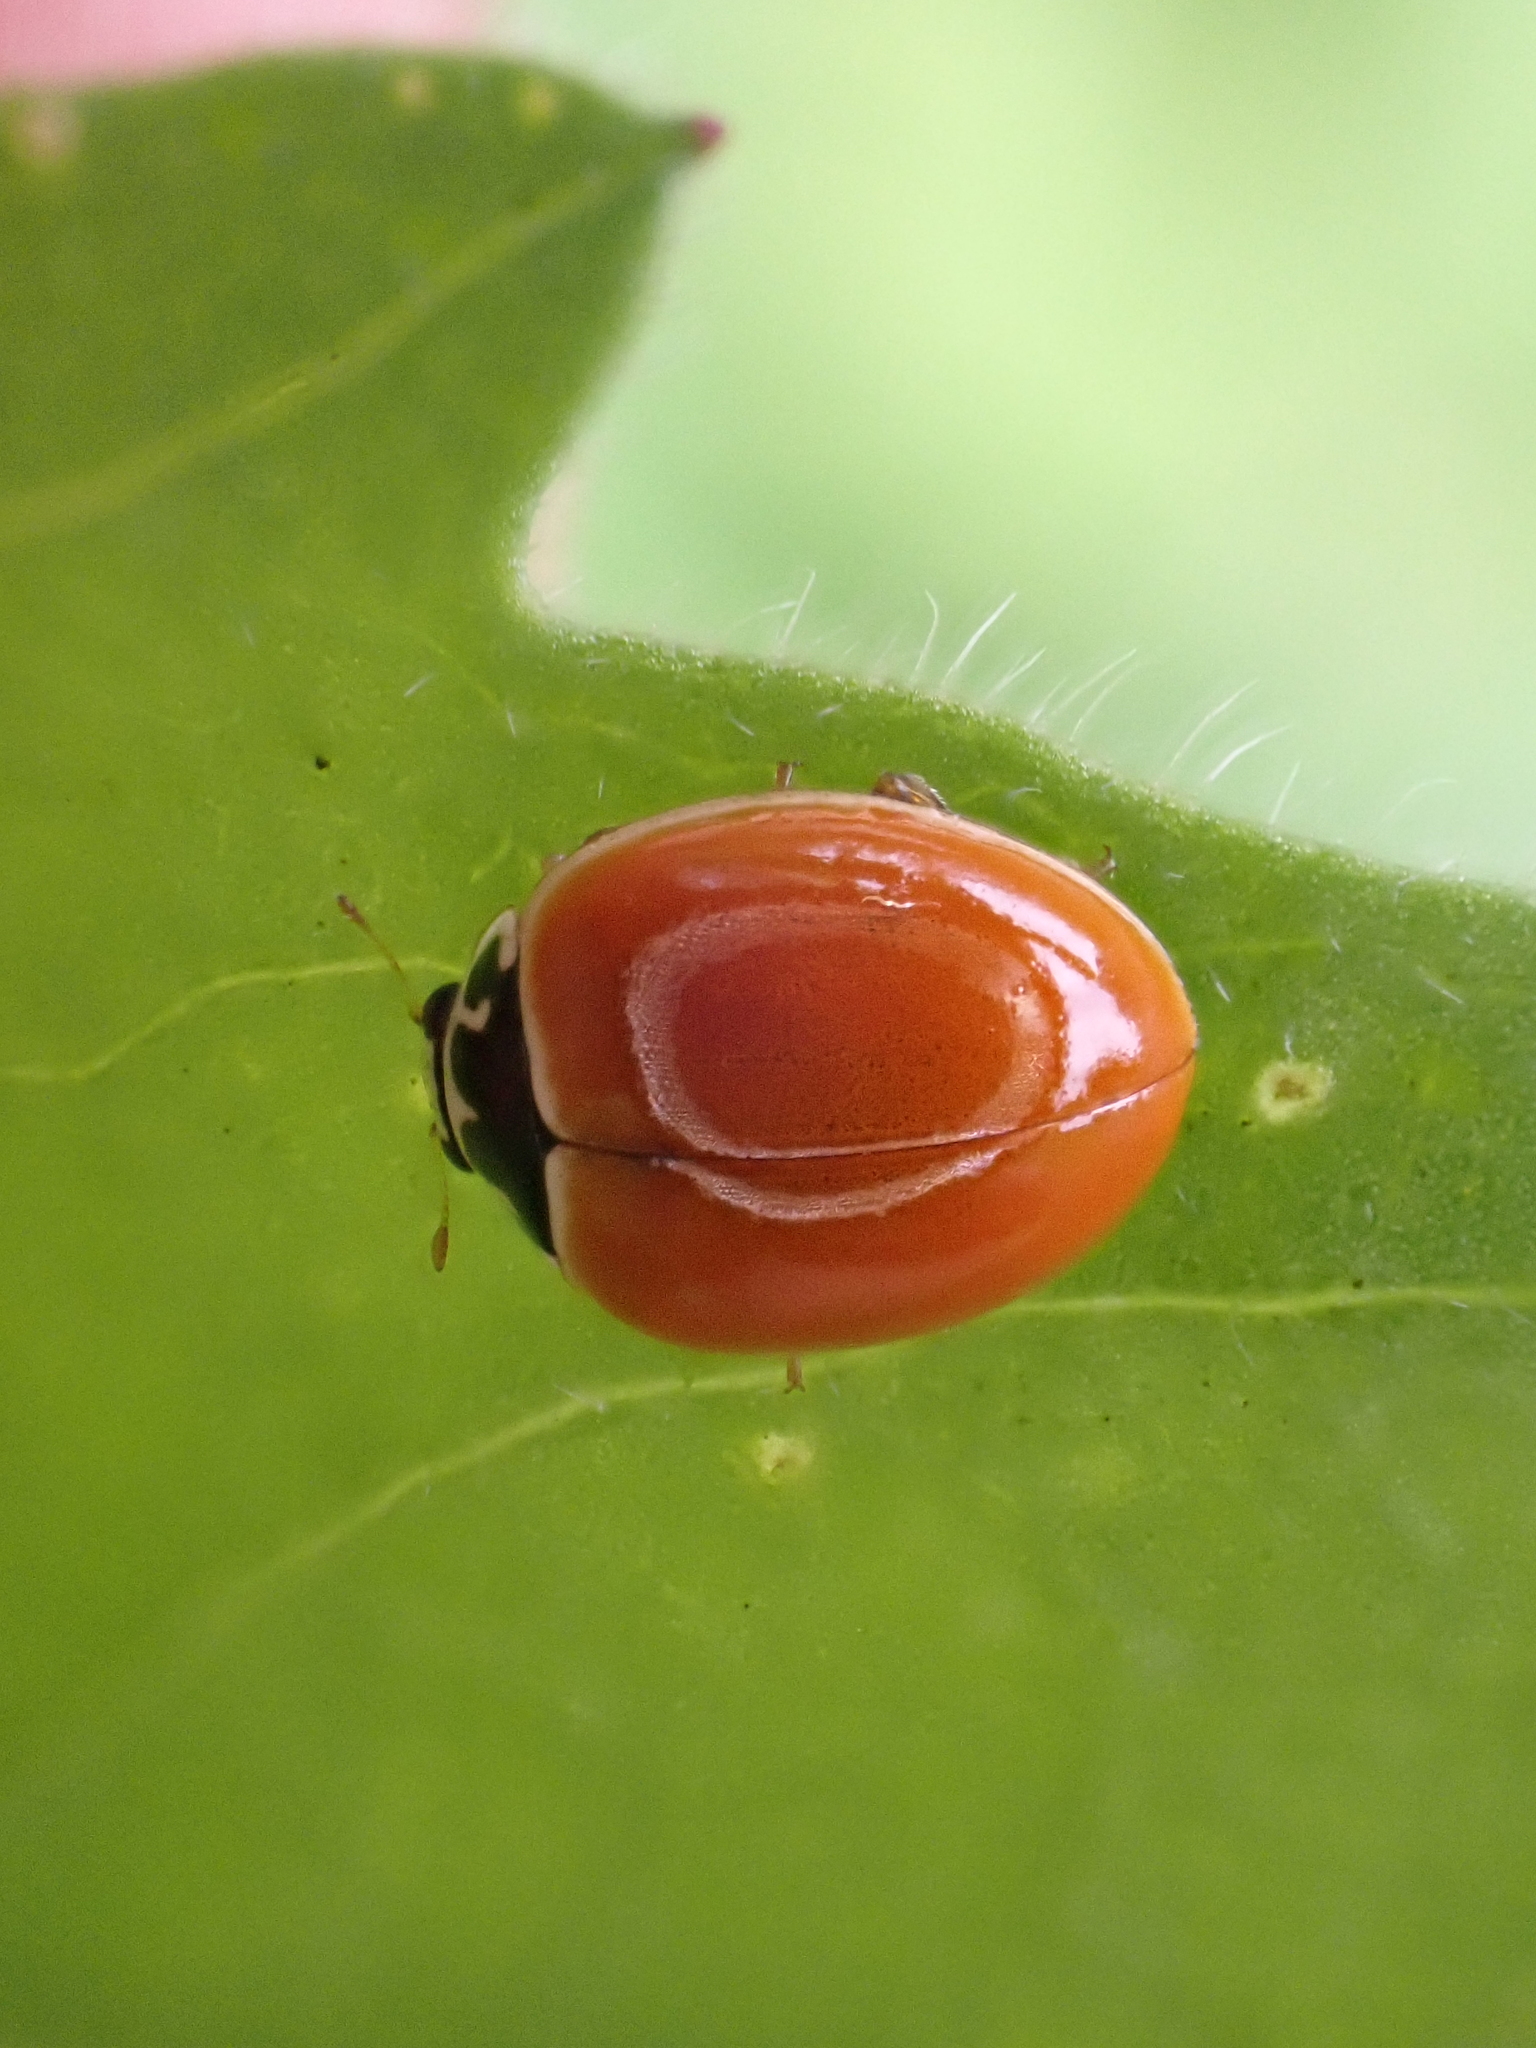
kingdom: Animalia
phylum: Arthropoda
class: Insecta
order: Coleoptera
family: Coccinellidae
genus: Cycloneda
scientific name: Cycloneda munda
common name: Polished lady beetle
